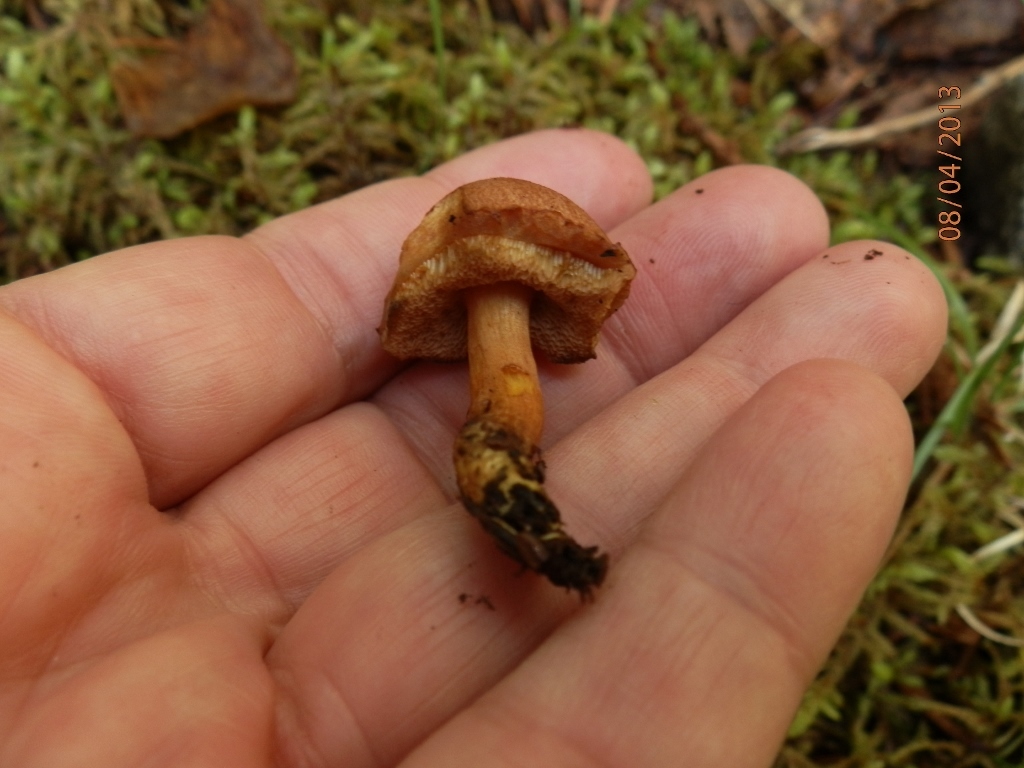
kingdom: Fungi
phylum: Basidiomycota
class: Agaricomycetes
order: Boletales
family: Boletaceae
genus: Chalciporus
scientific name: Chalciporus piperatus
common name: Peppery bolete
